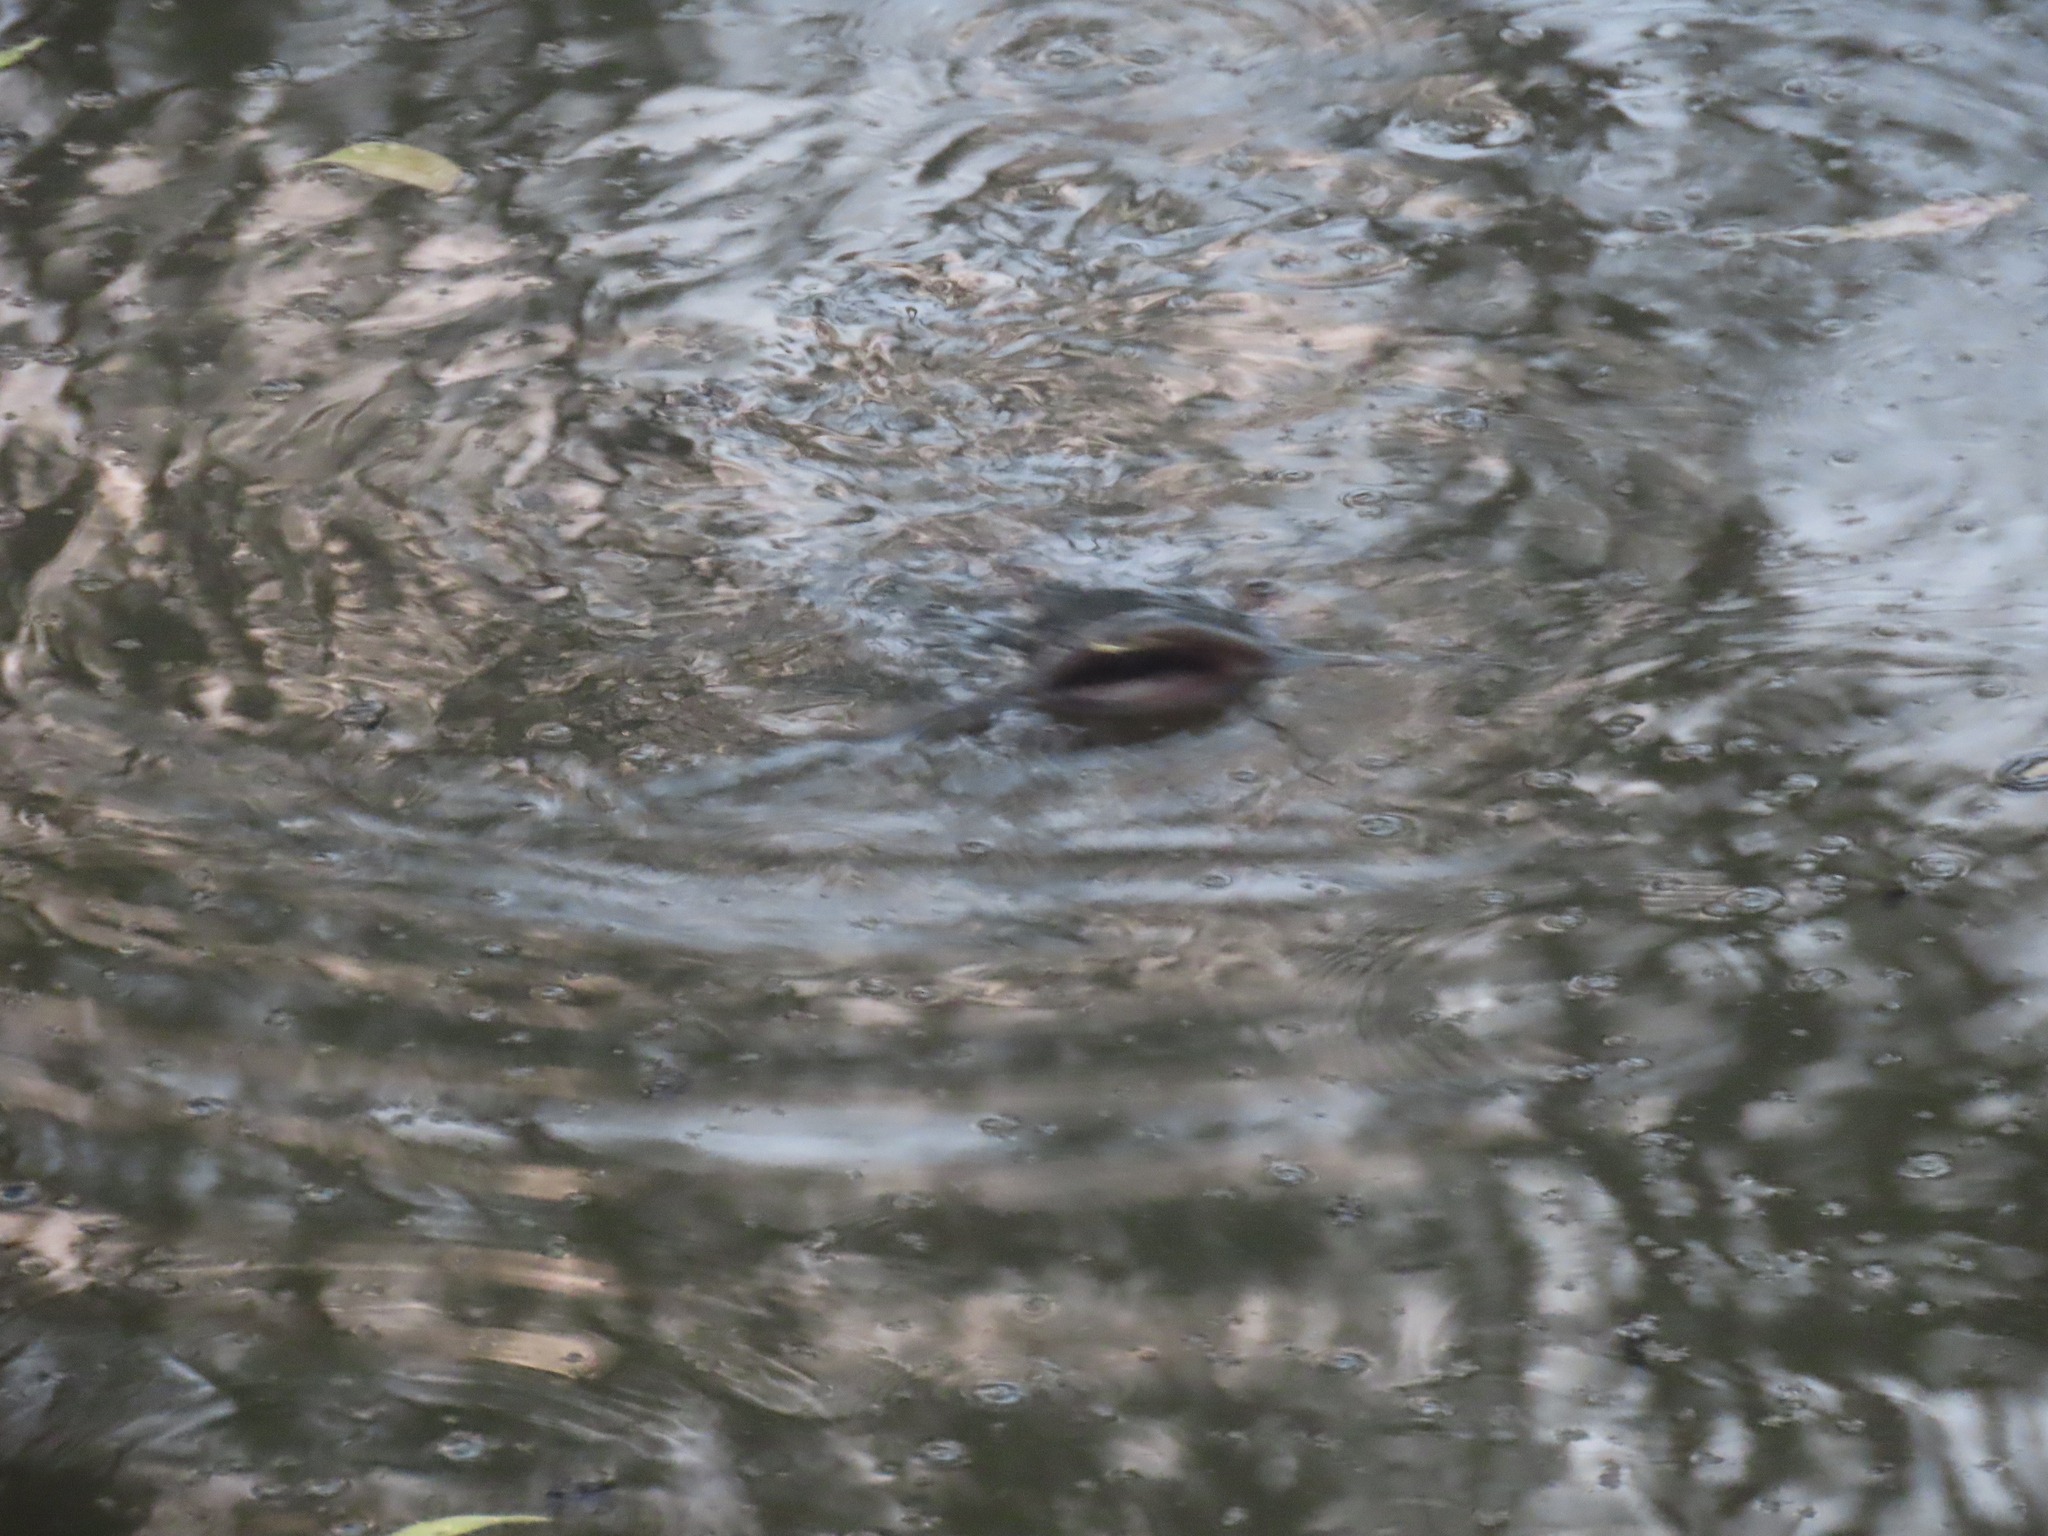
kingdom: Animalia
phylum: Chordata
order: Siluriformes
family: Clariidae
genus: Clarias
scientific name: Clarias gariepinus
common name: African catfish
